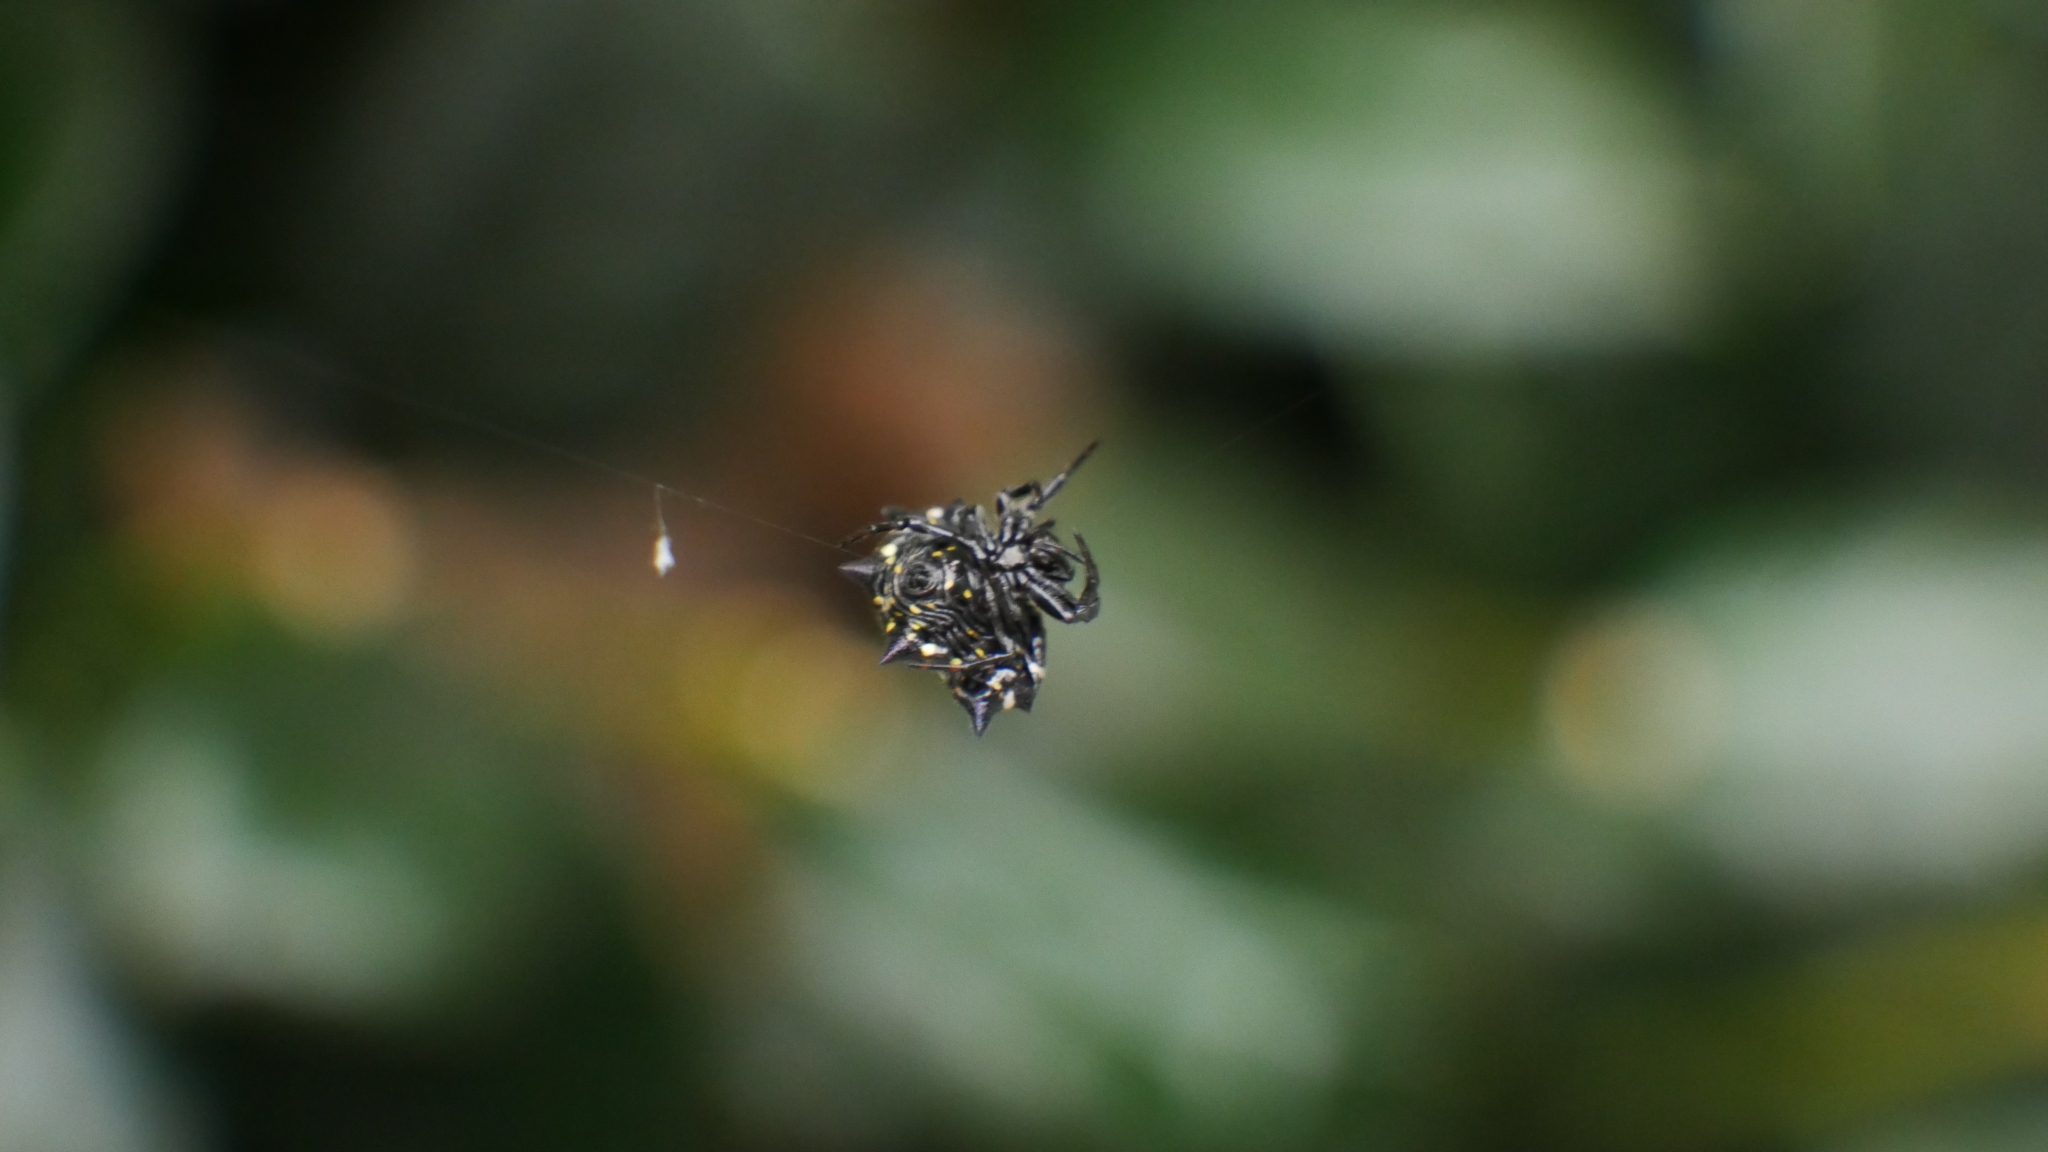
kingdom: Animalia
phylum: Arthropoda
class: Arachnida
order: Araneae
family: Araneidae
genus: Gasteracantha
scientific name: Gasteracantha cancriformis
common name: Orb weavers
